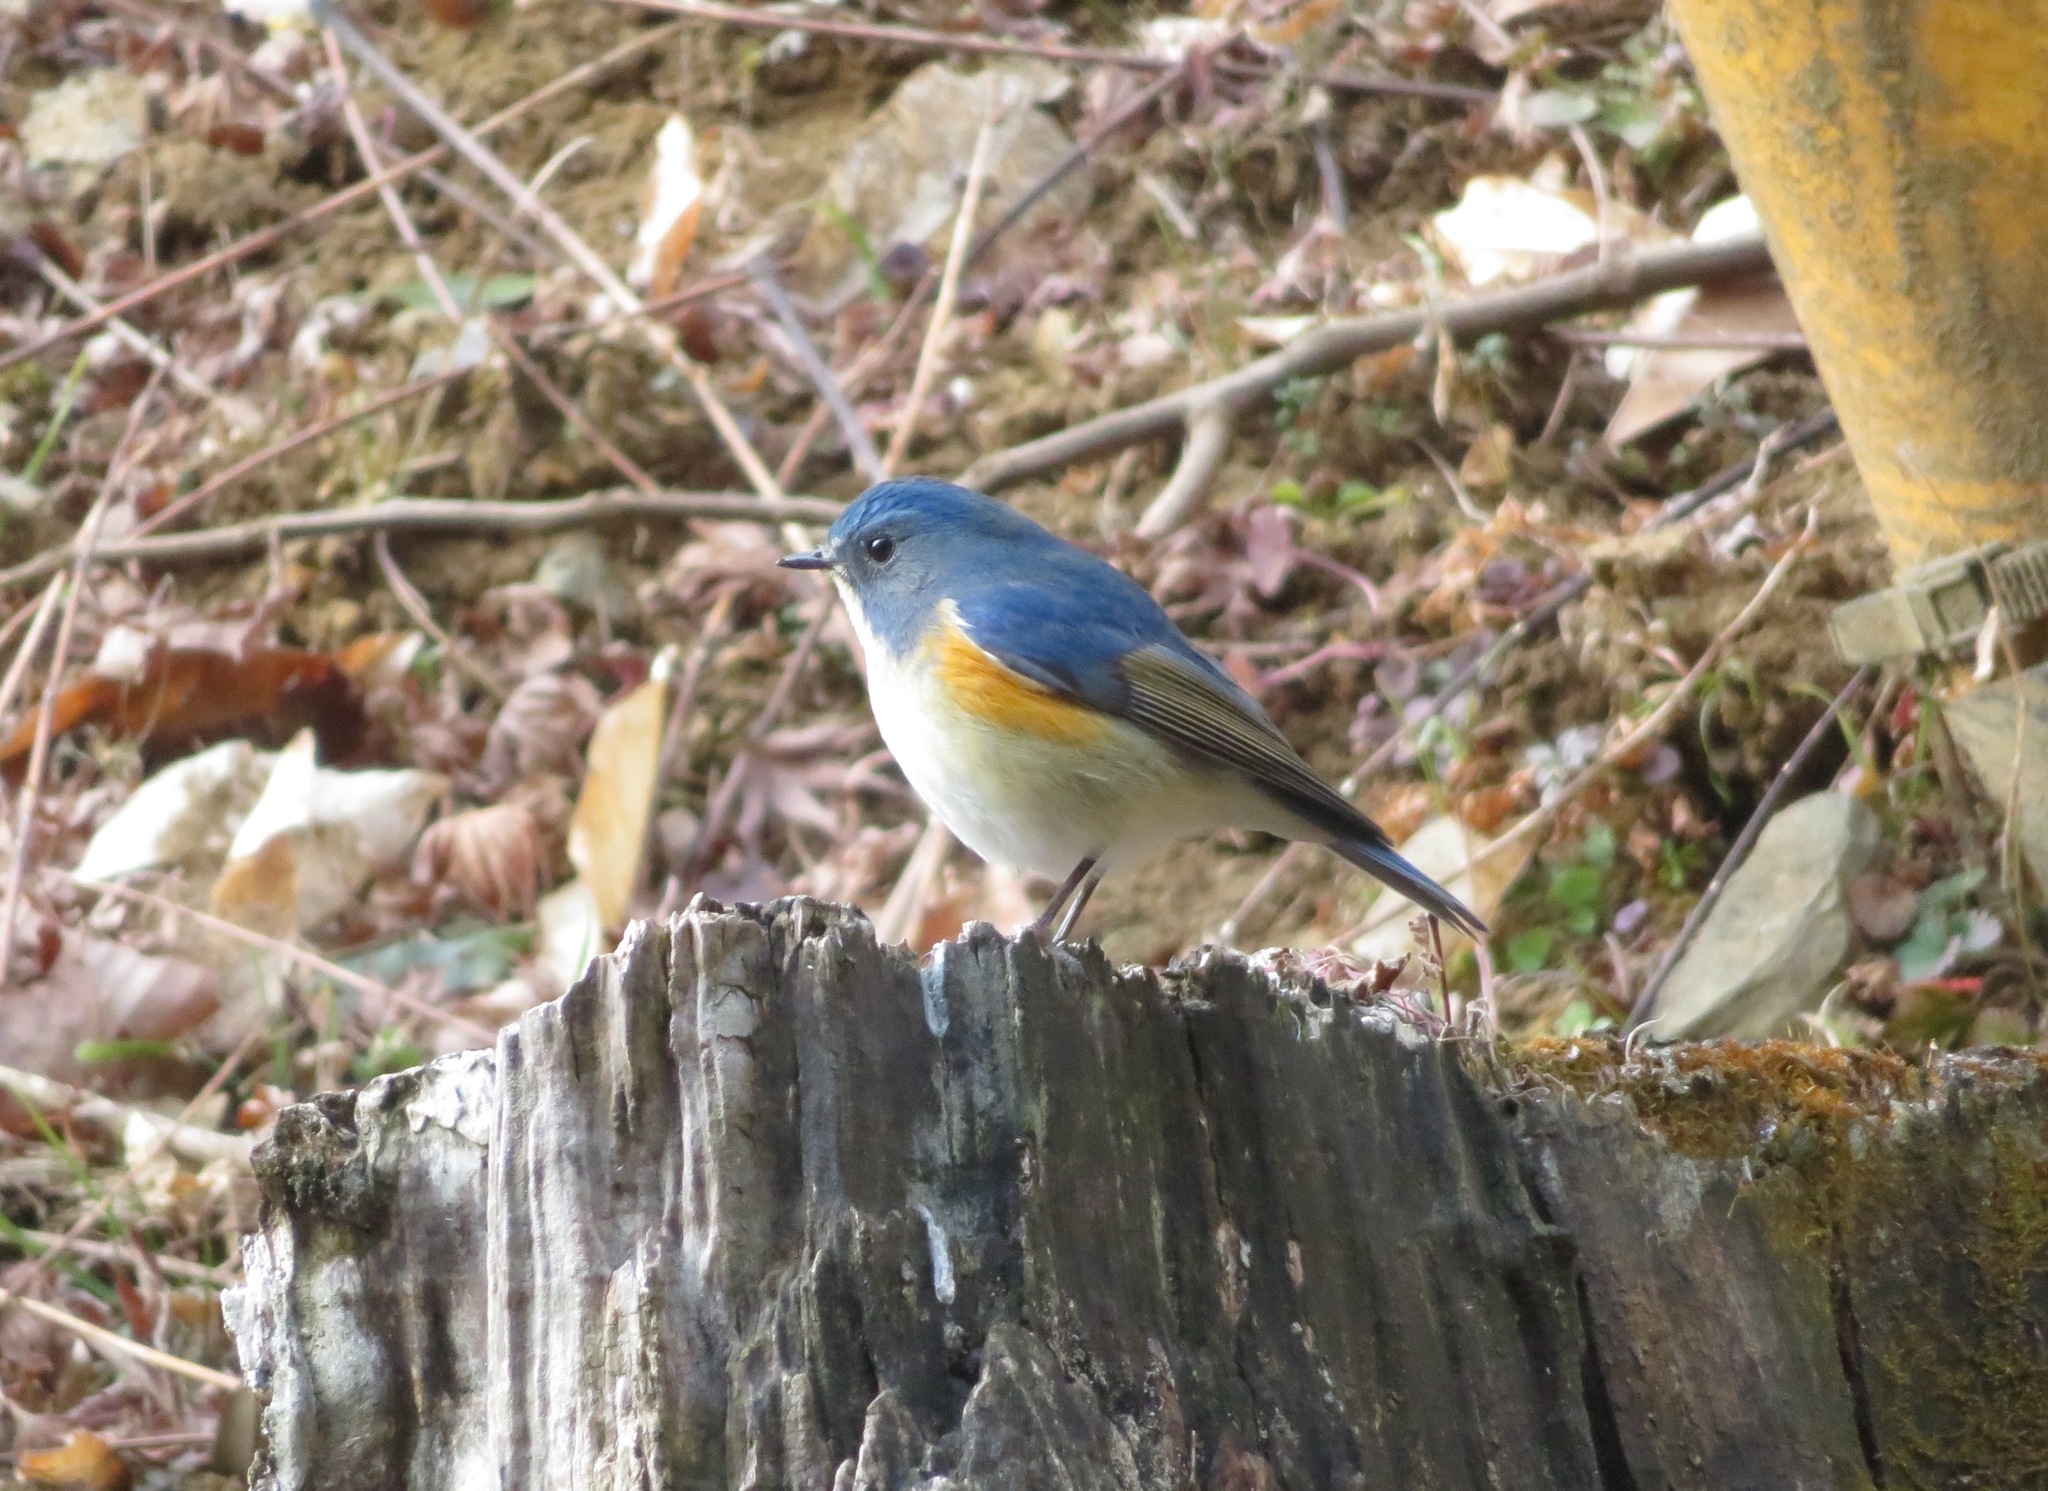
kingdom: Animalia
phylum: Chordata
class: Aves
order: Passeriformes
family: Muscicapidae
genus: Tarsiger
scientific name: Tarsiger cyanurus
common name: Red-flanked bluetail
